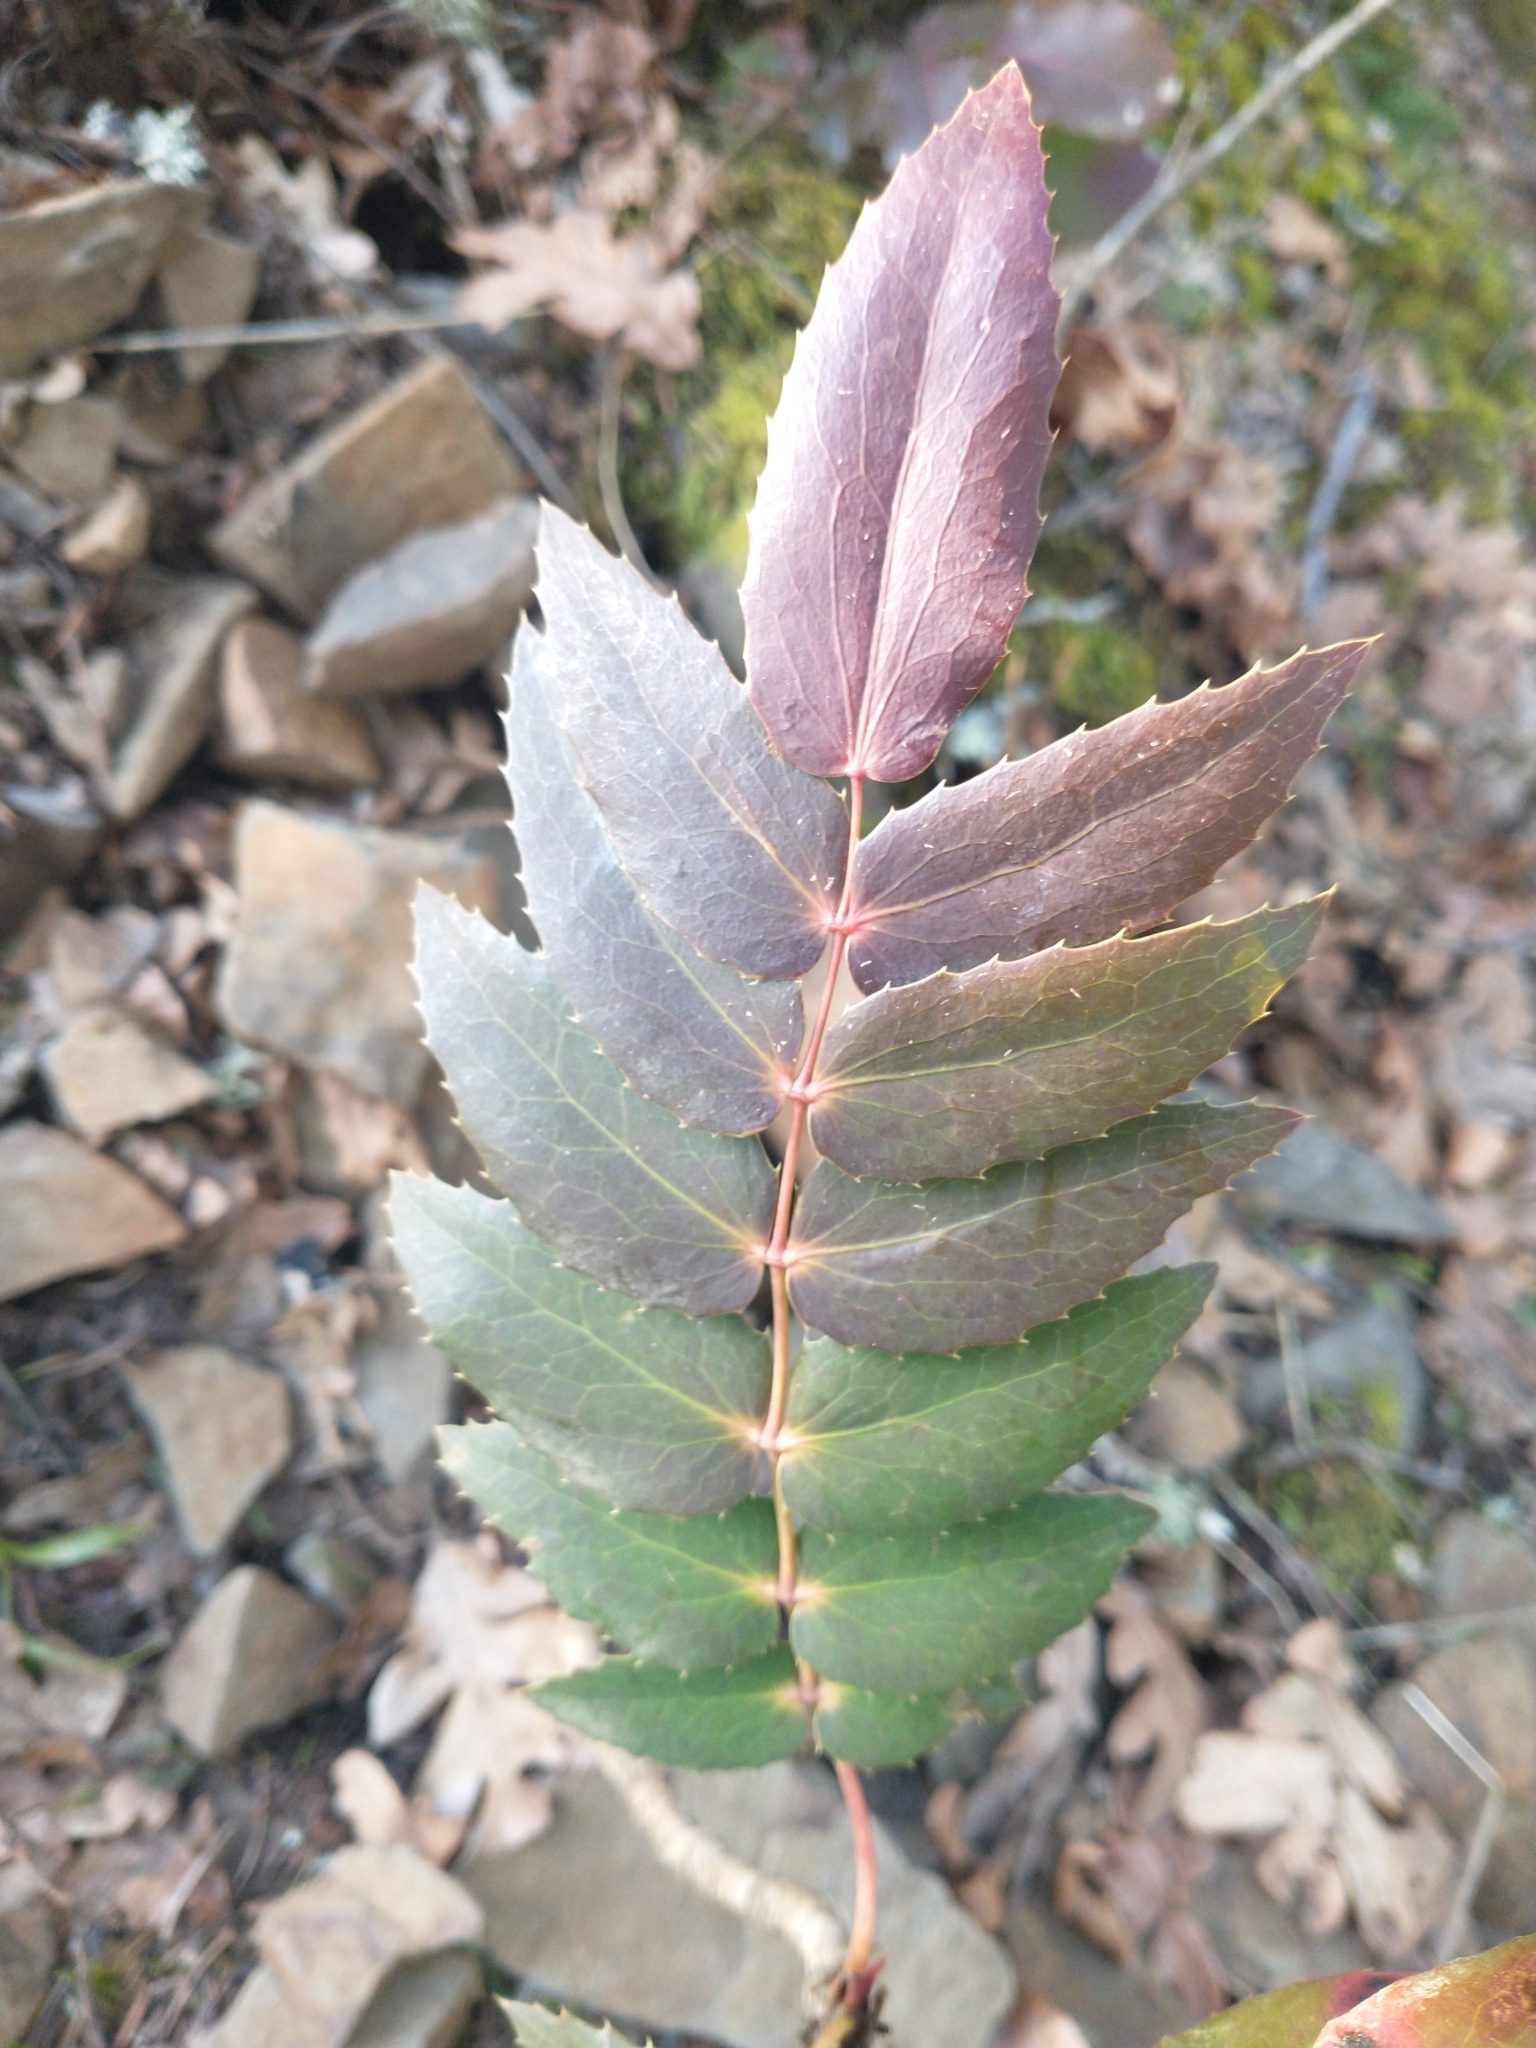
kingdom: Plantae
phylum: Tracheophyta
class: Magnoliopsida
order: Ranunculales
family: Berberidaceae
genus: Mahonia
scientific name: Mahonia nervosa
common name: Cascade oregon-grape
